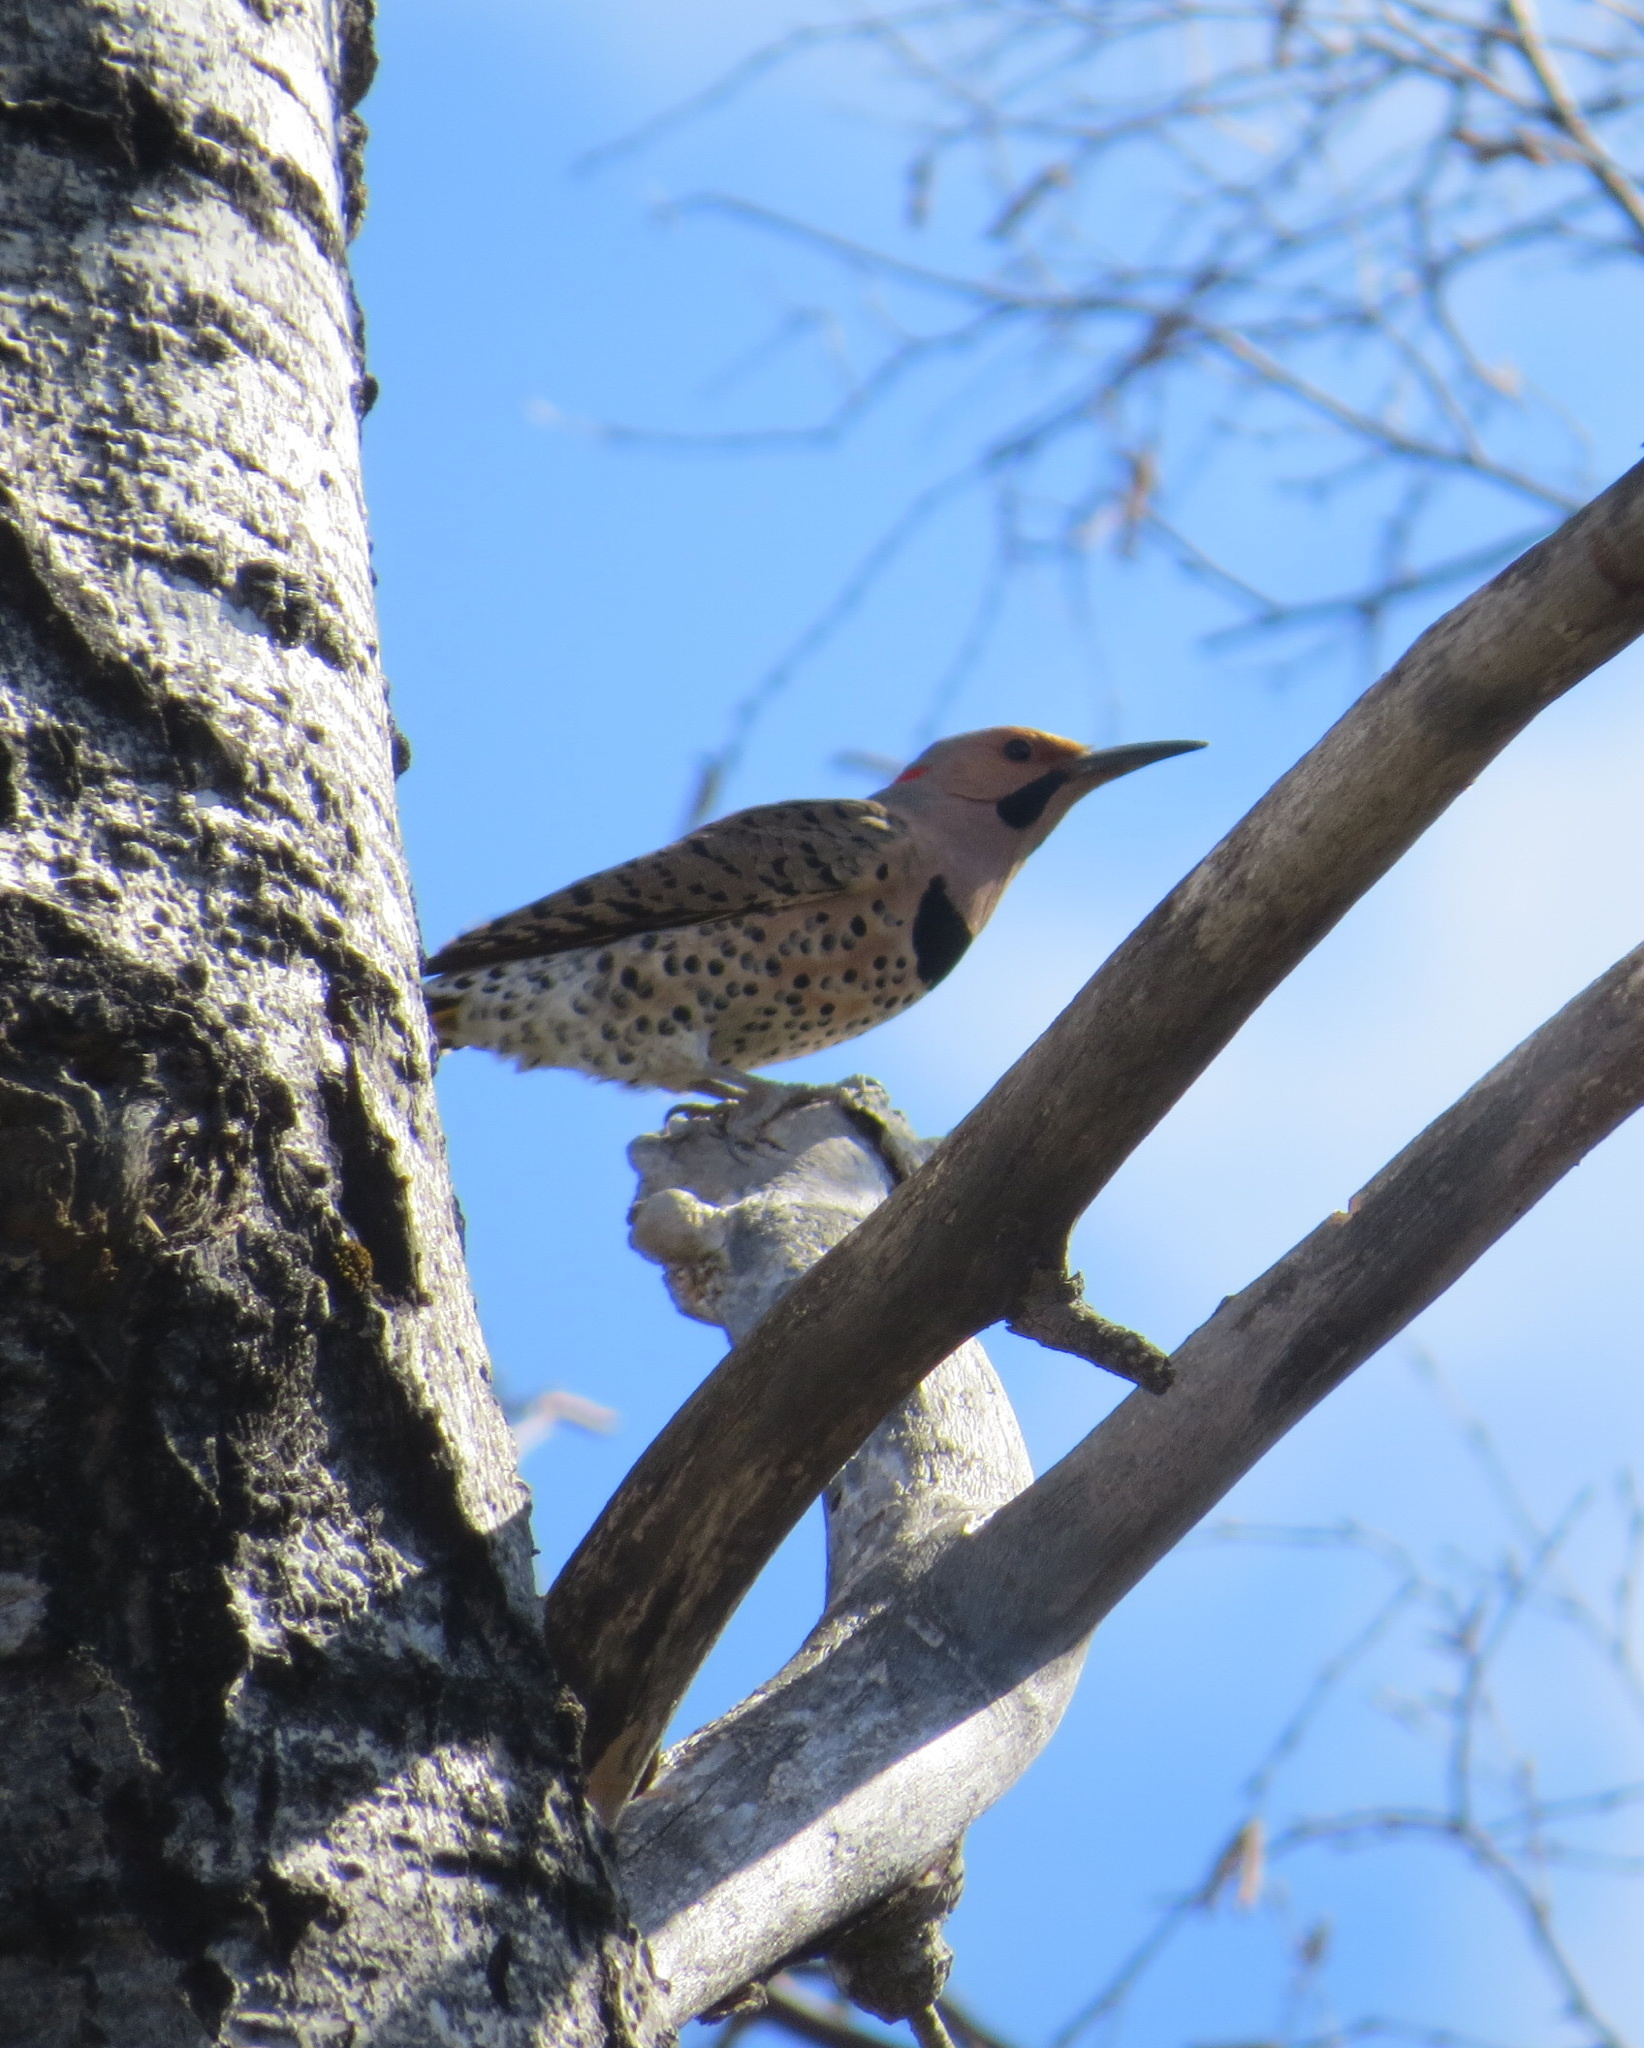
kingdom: Animalia
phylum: Chordata
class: Aves
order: Piciformes
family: Picidae
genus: Colaptes
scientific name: Colaptes auratus
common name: Northern flicker
